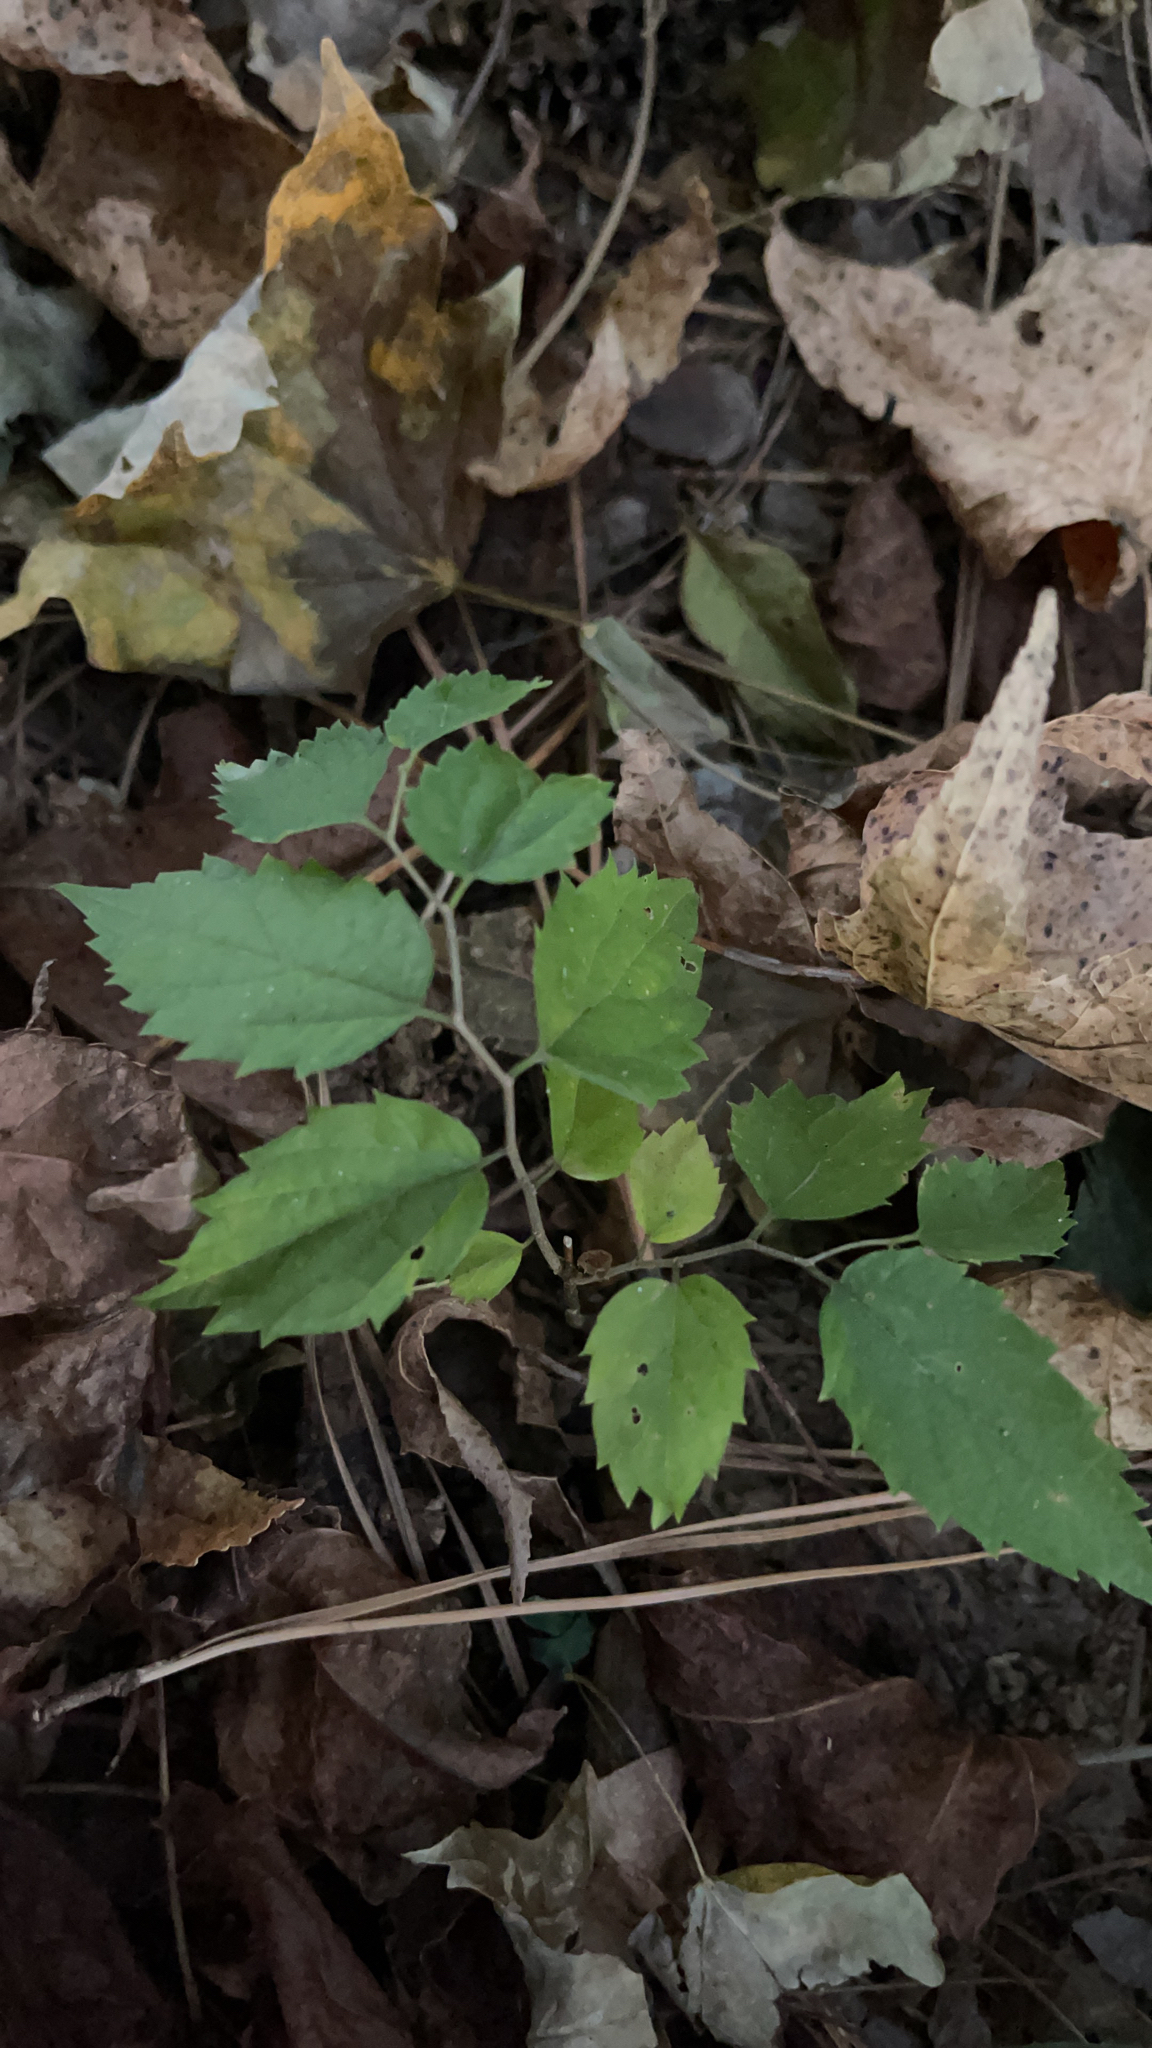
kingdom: Plantae
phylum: Tracheophyta
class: Magnoliopsida
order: Rosales
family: Cannabaceae
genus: Celtis
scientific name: Celtis occidentalis
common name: Common hackberry
